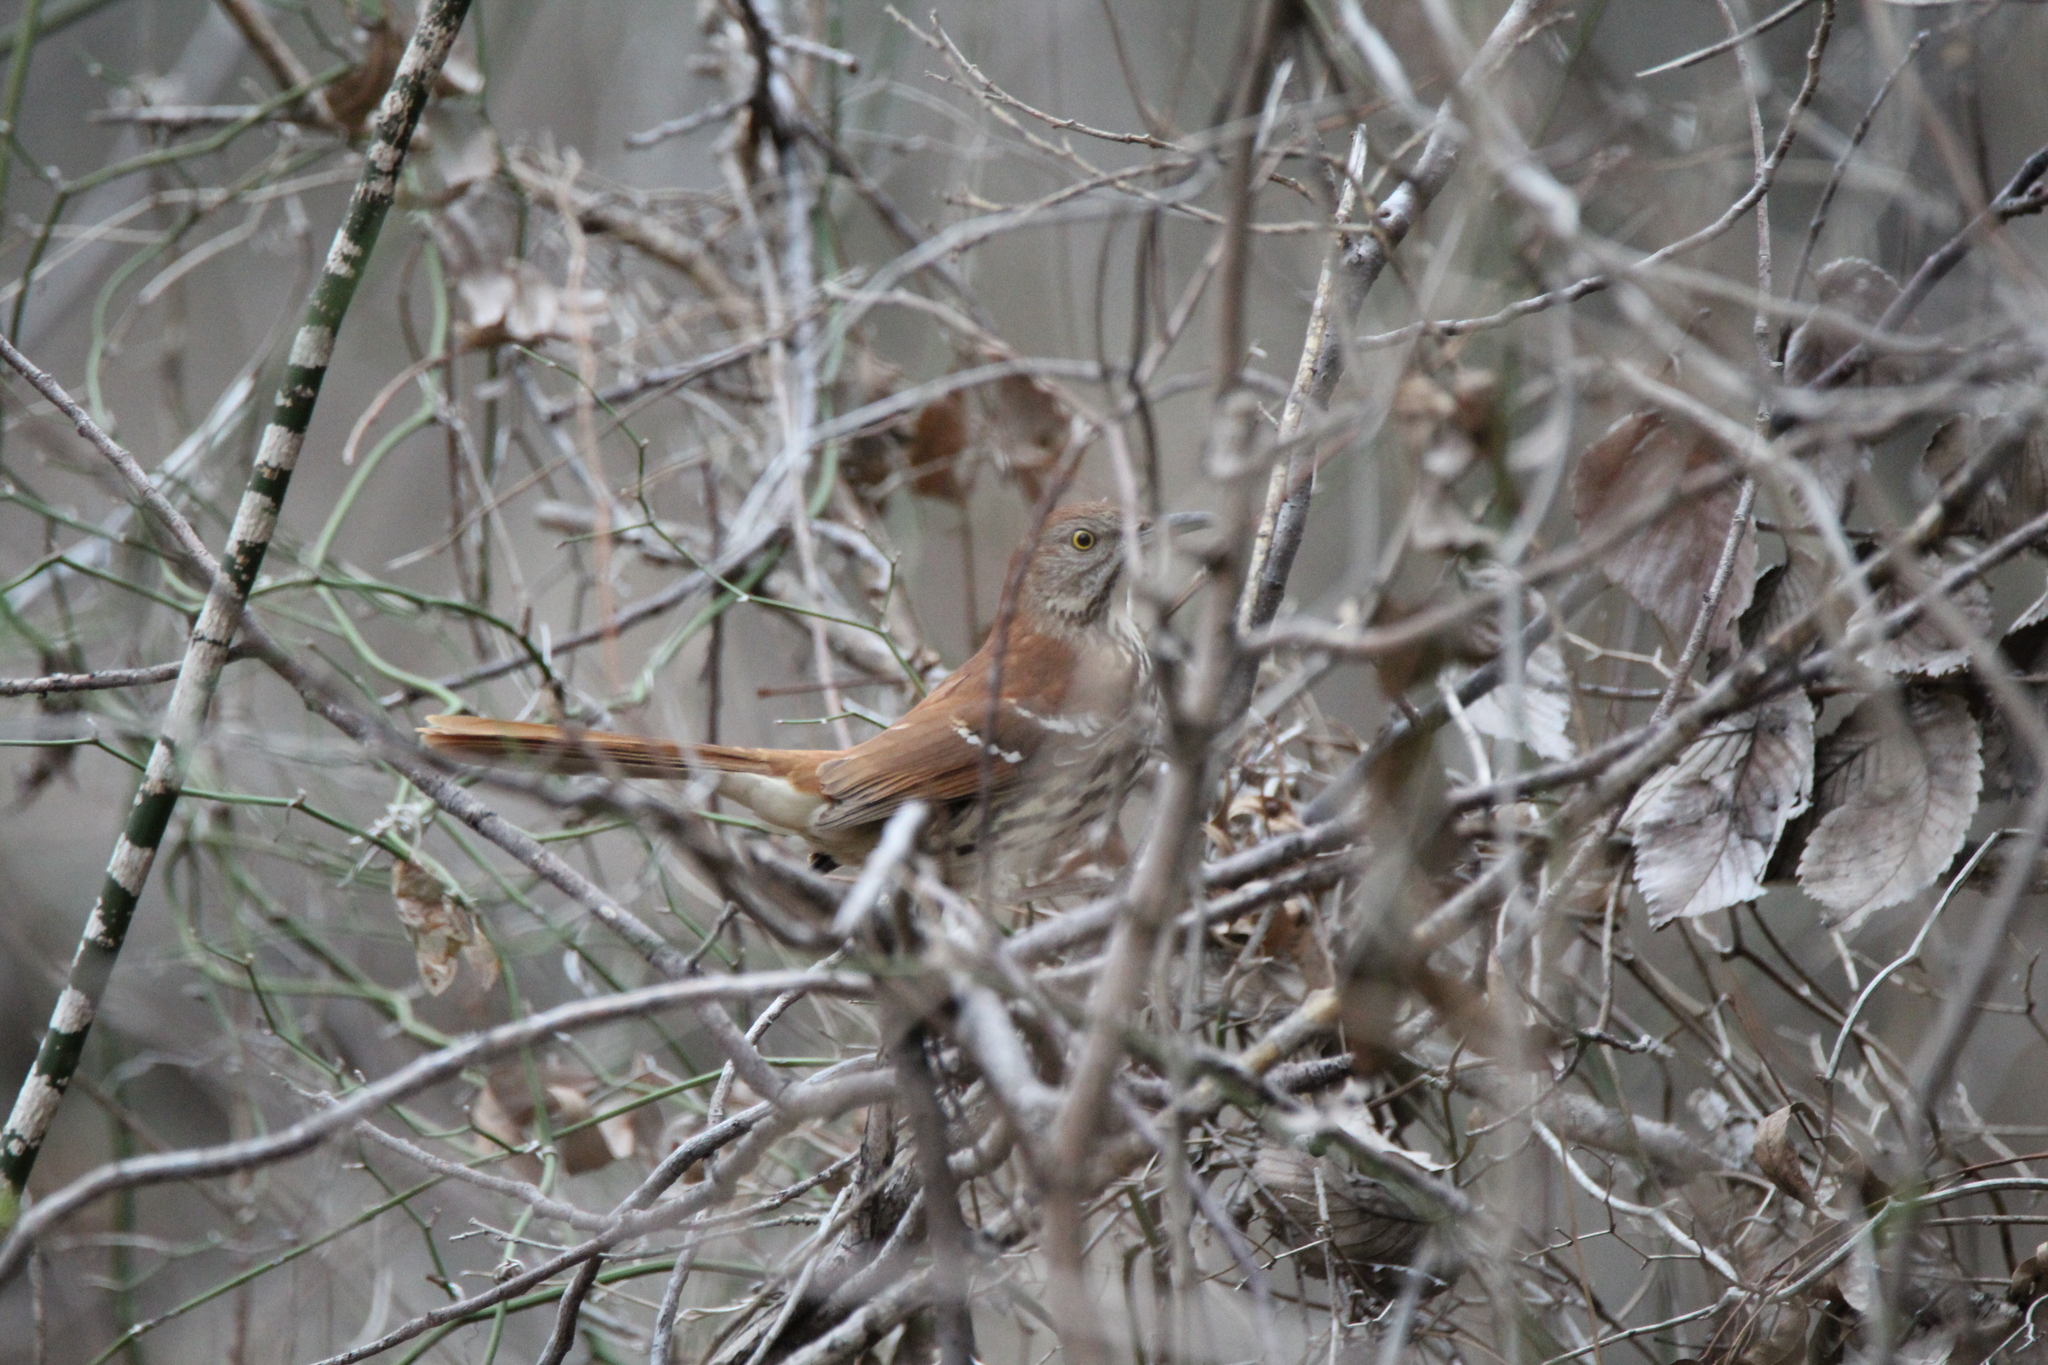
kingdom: Animalia
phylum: Chordata
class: Aves
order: Passeriformes
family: Mimidae
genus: Toxostoma
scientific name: Toxostoma rufum
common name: Brown thrasher
